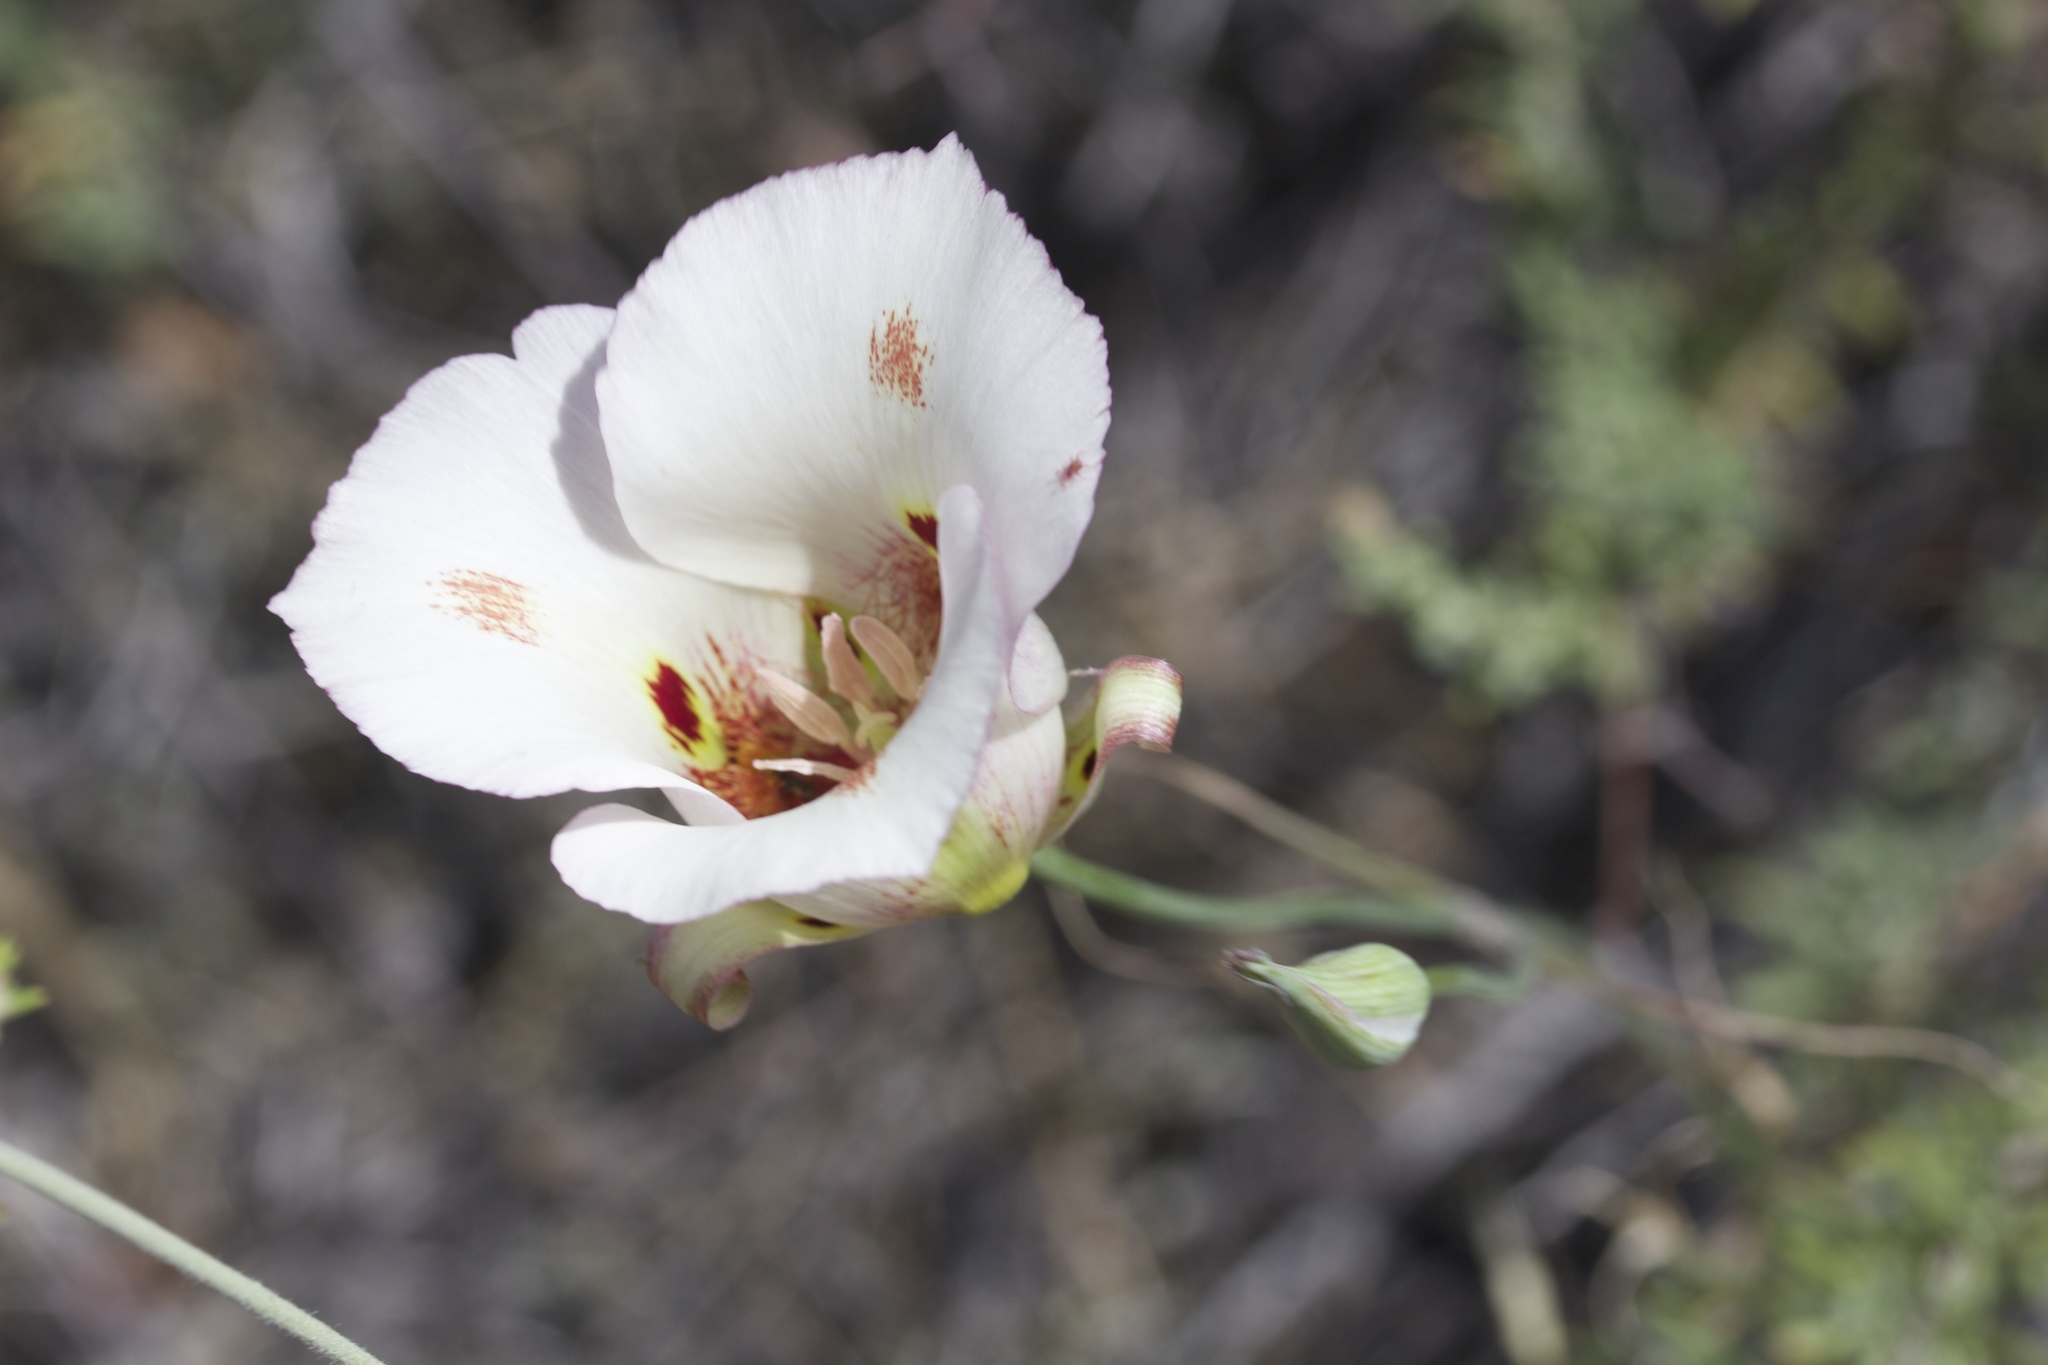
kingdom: Plantae
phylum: Tracheophyta
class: Liliopsida
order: Liliales
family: Liliaceae
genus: Calochortus
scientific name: Calochortus venustus
